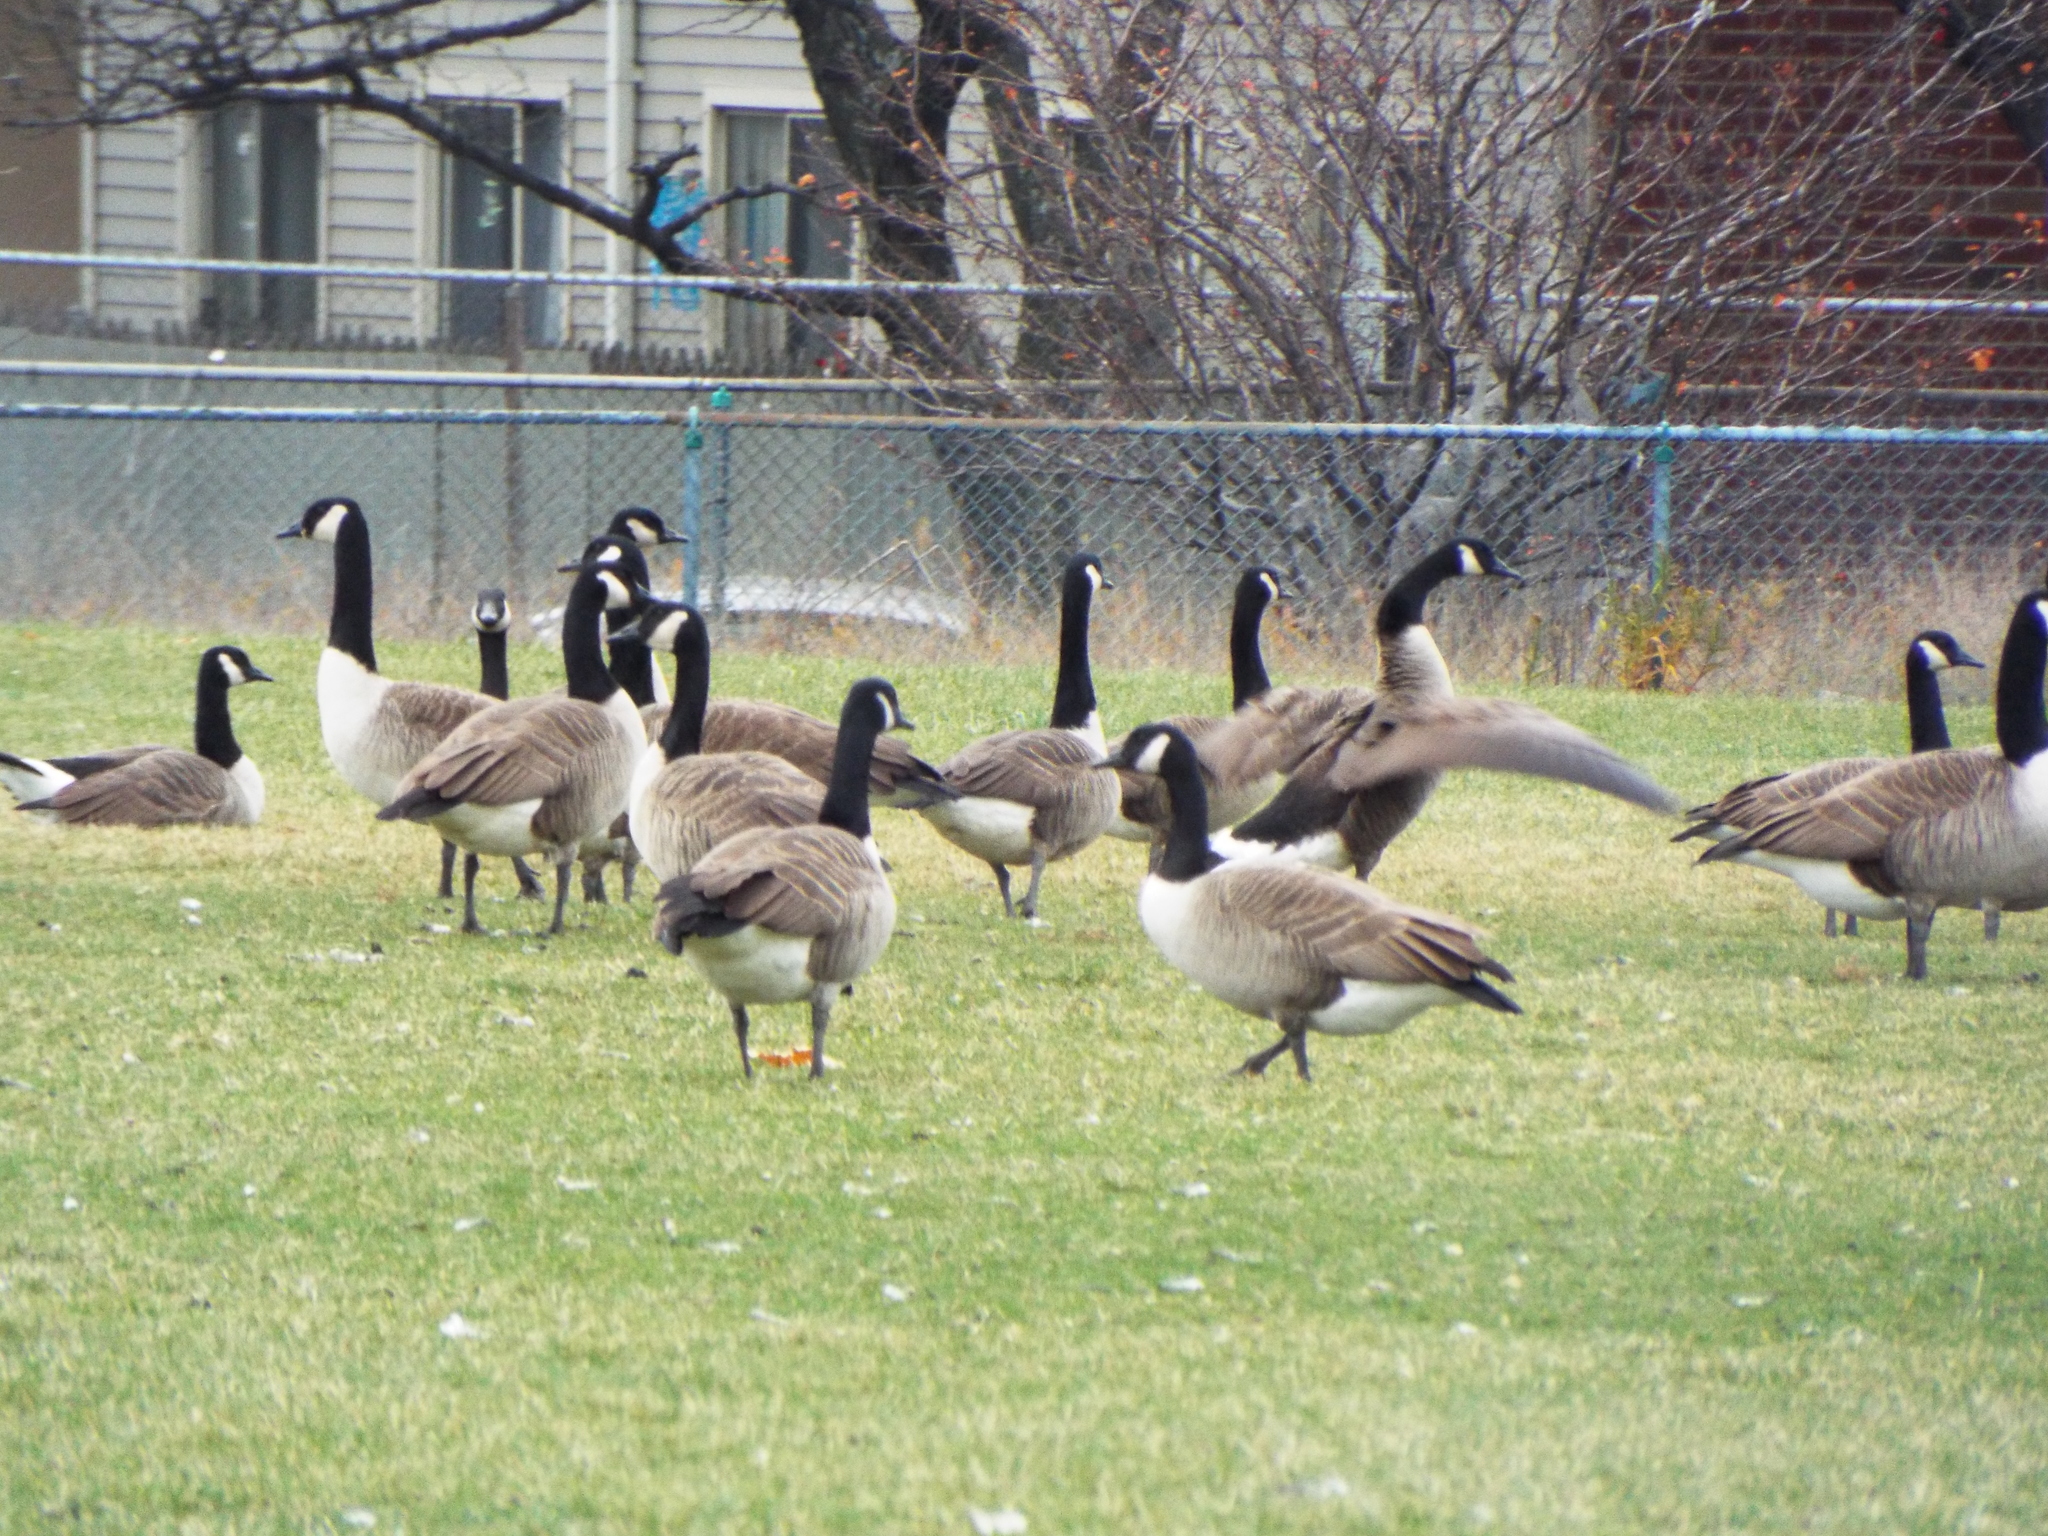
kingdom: Animalia
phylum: Chordata
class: Aves
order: Anseriformes
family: Anatidae
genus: Branta
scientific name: Branta canadensis
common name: Canada goose
